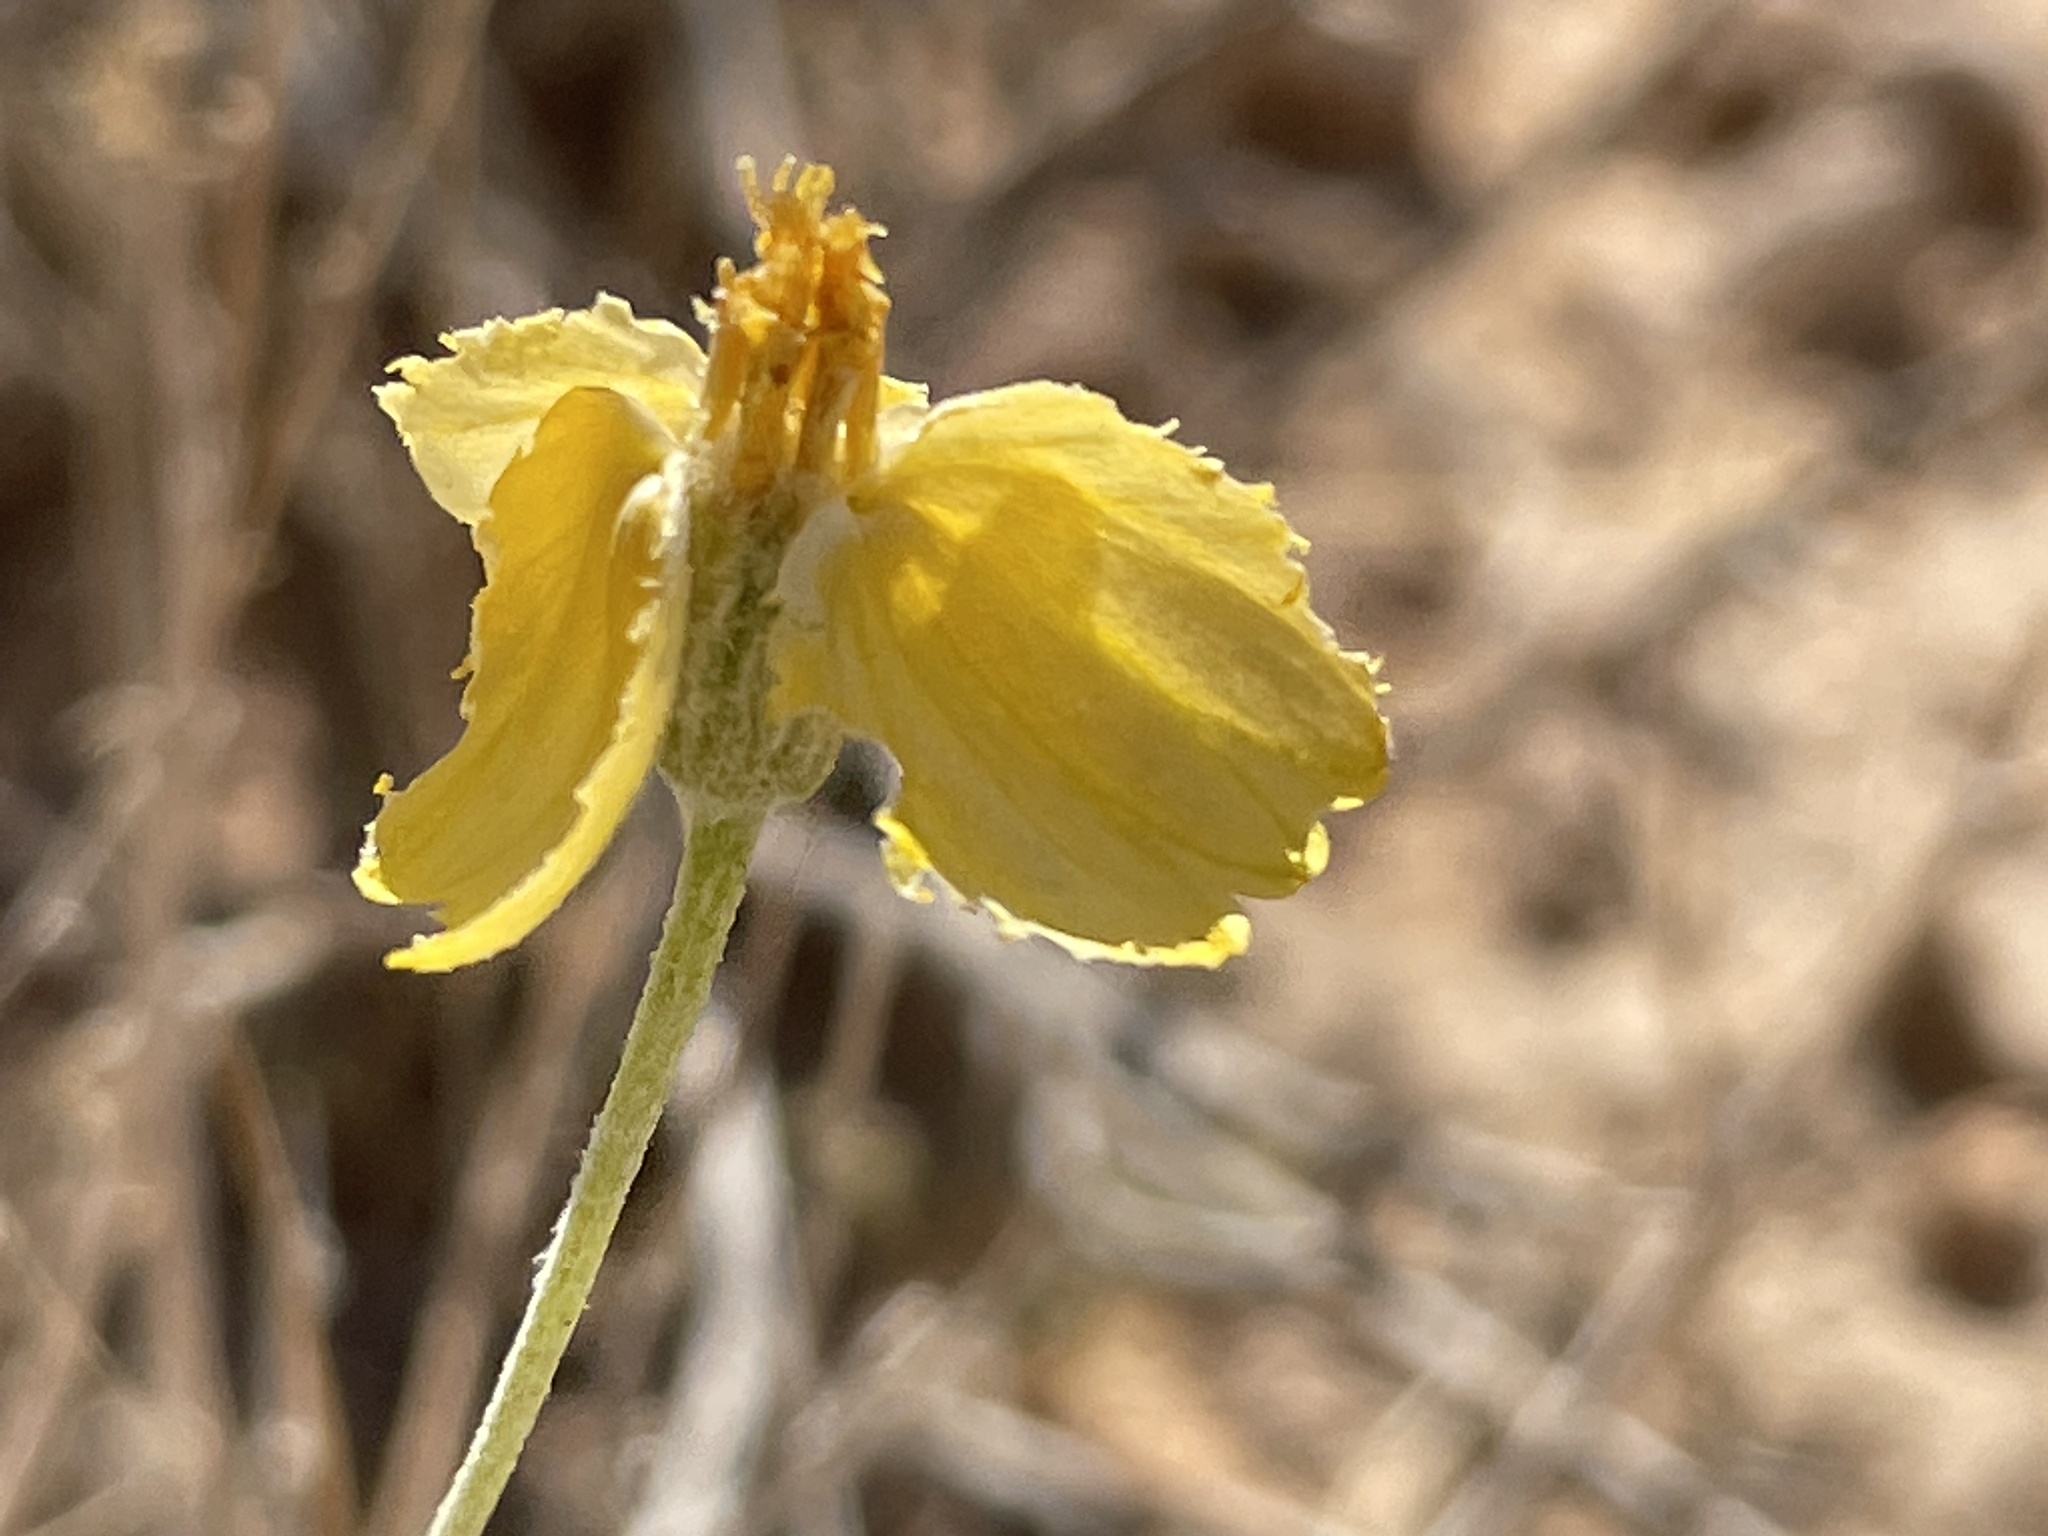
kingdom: Plantae
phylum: Tracheophyta
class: Magnoliopsida
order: Asterales
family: Asteraceae
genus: Psilostrophe
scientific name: Psilostrophe cooperi
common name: White-stem paper-flower
